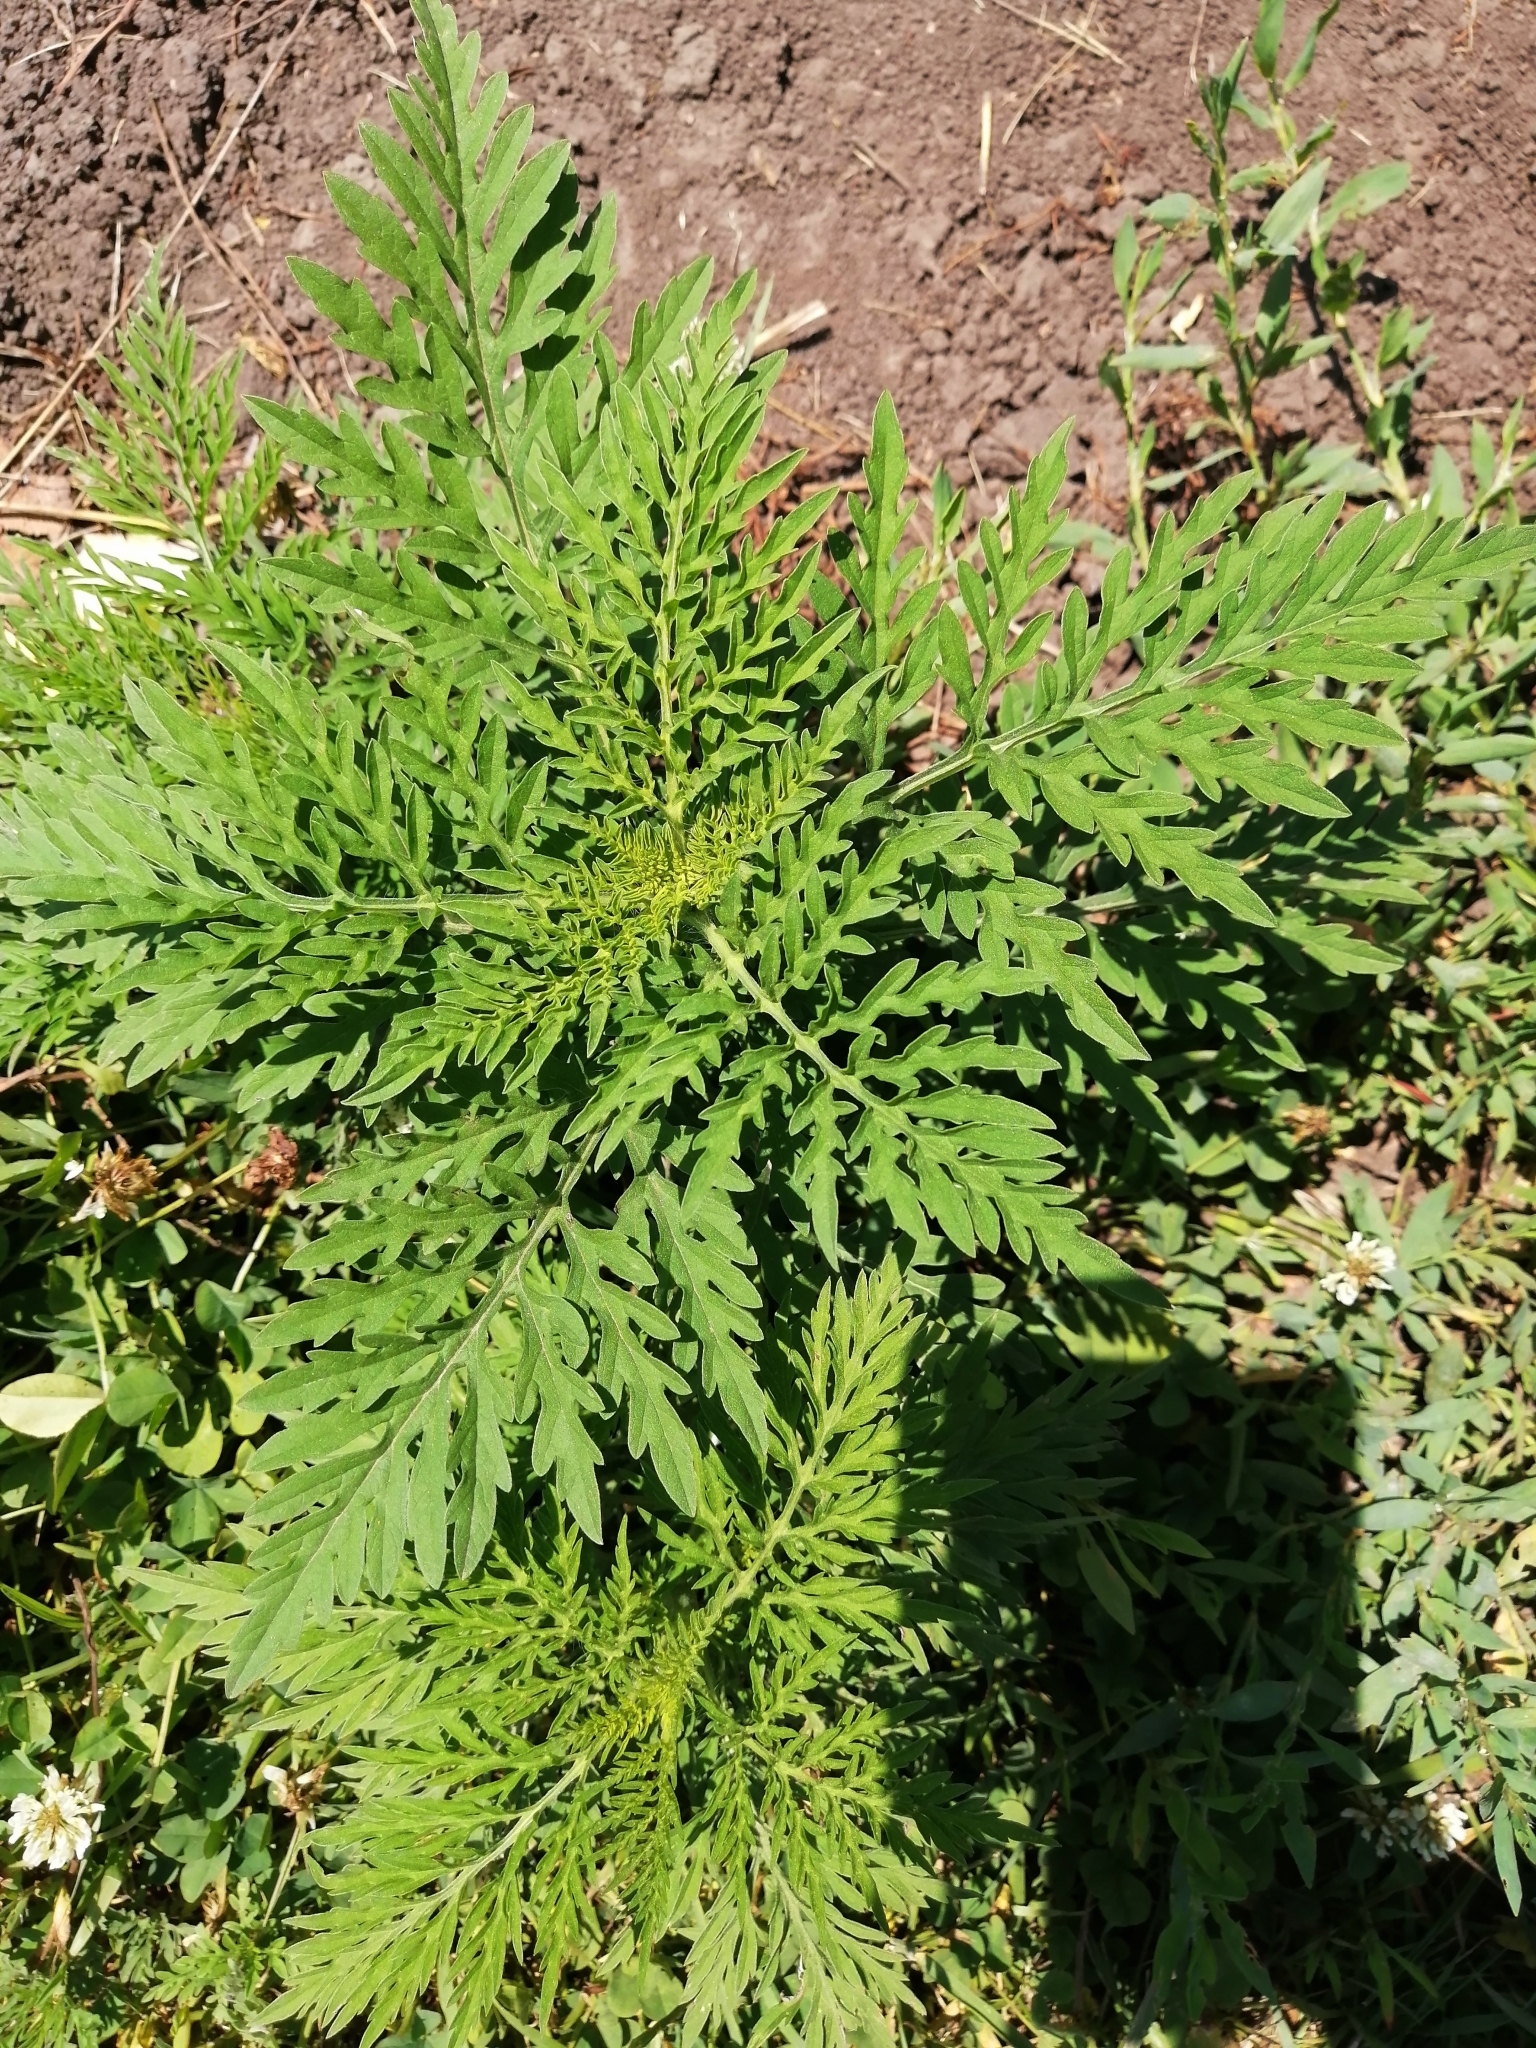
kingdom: Plantae
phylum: Tracheophyta
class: Magnoliopsida
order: Asterales
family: Asteraceae
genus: Ambrosia
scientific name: Ambrosia artemisiifolia
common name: Annual ragweed
